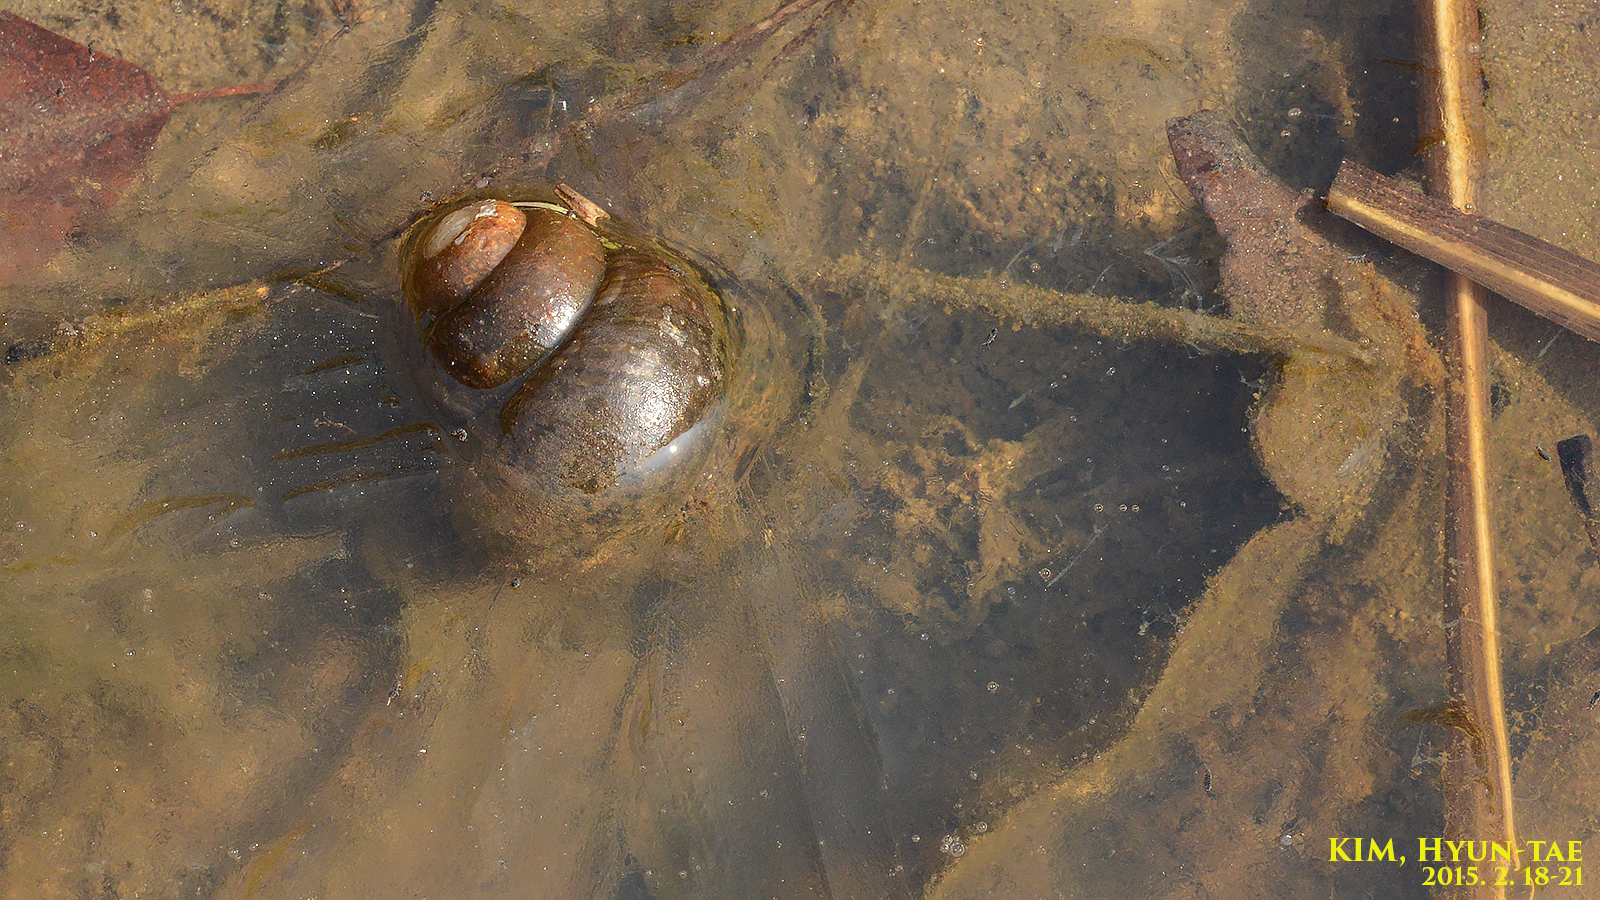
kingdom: Animalia
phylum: Mollusca
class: Gastropoda
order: Architaenioglossa
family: Viviparidae
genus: Cipangopaludina
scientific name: Cipangopaludina chinensis
